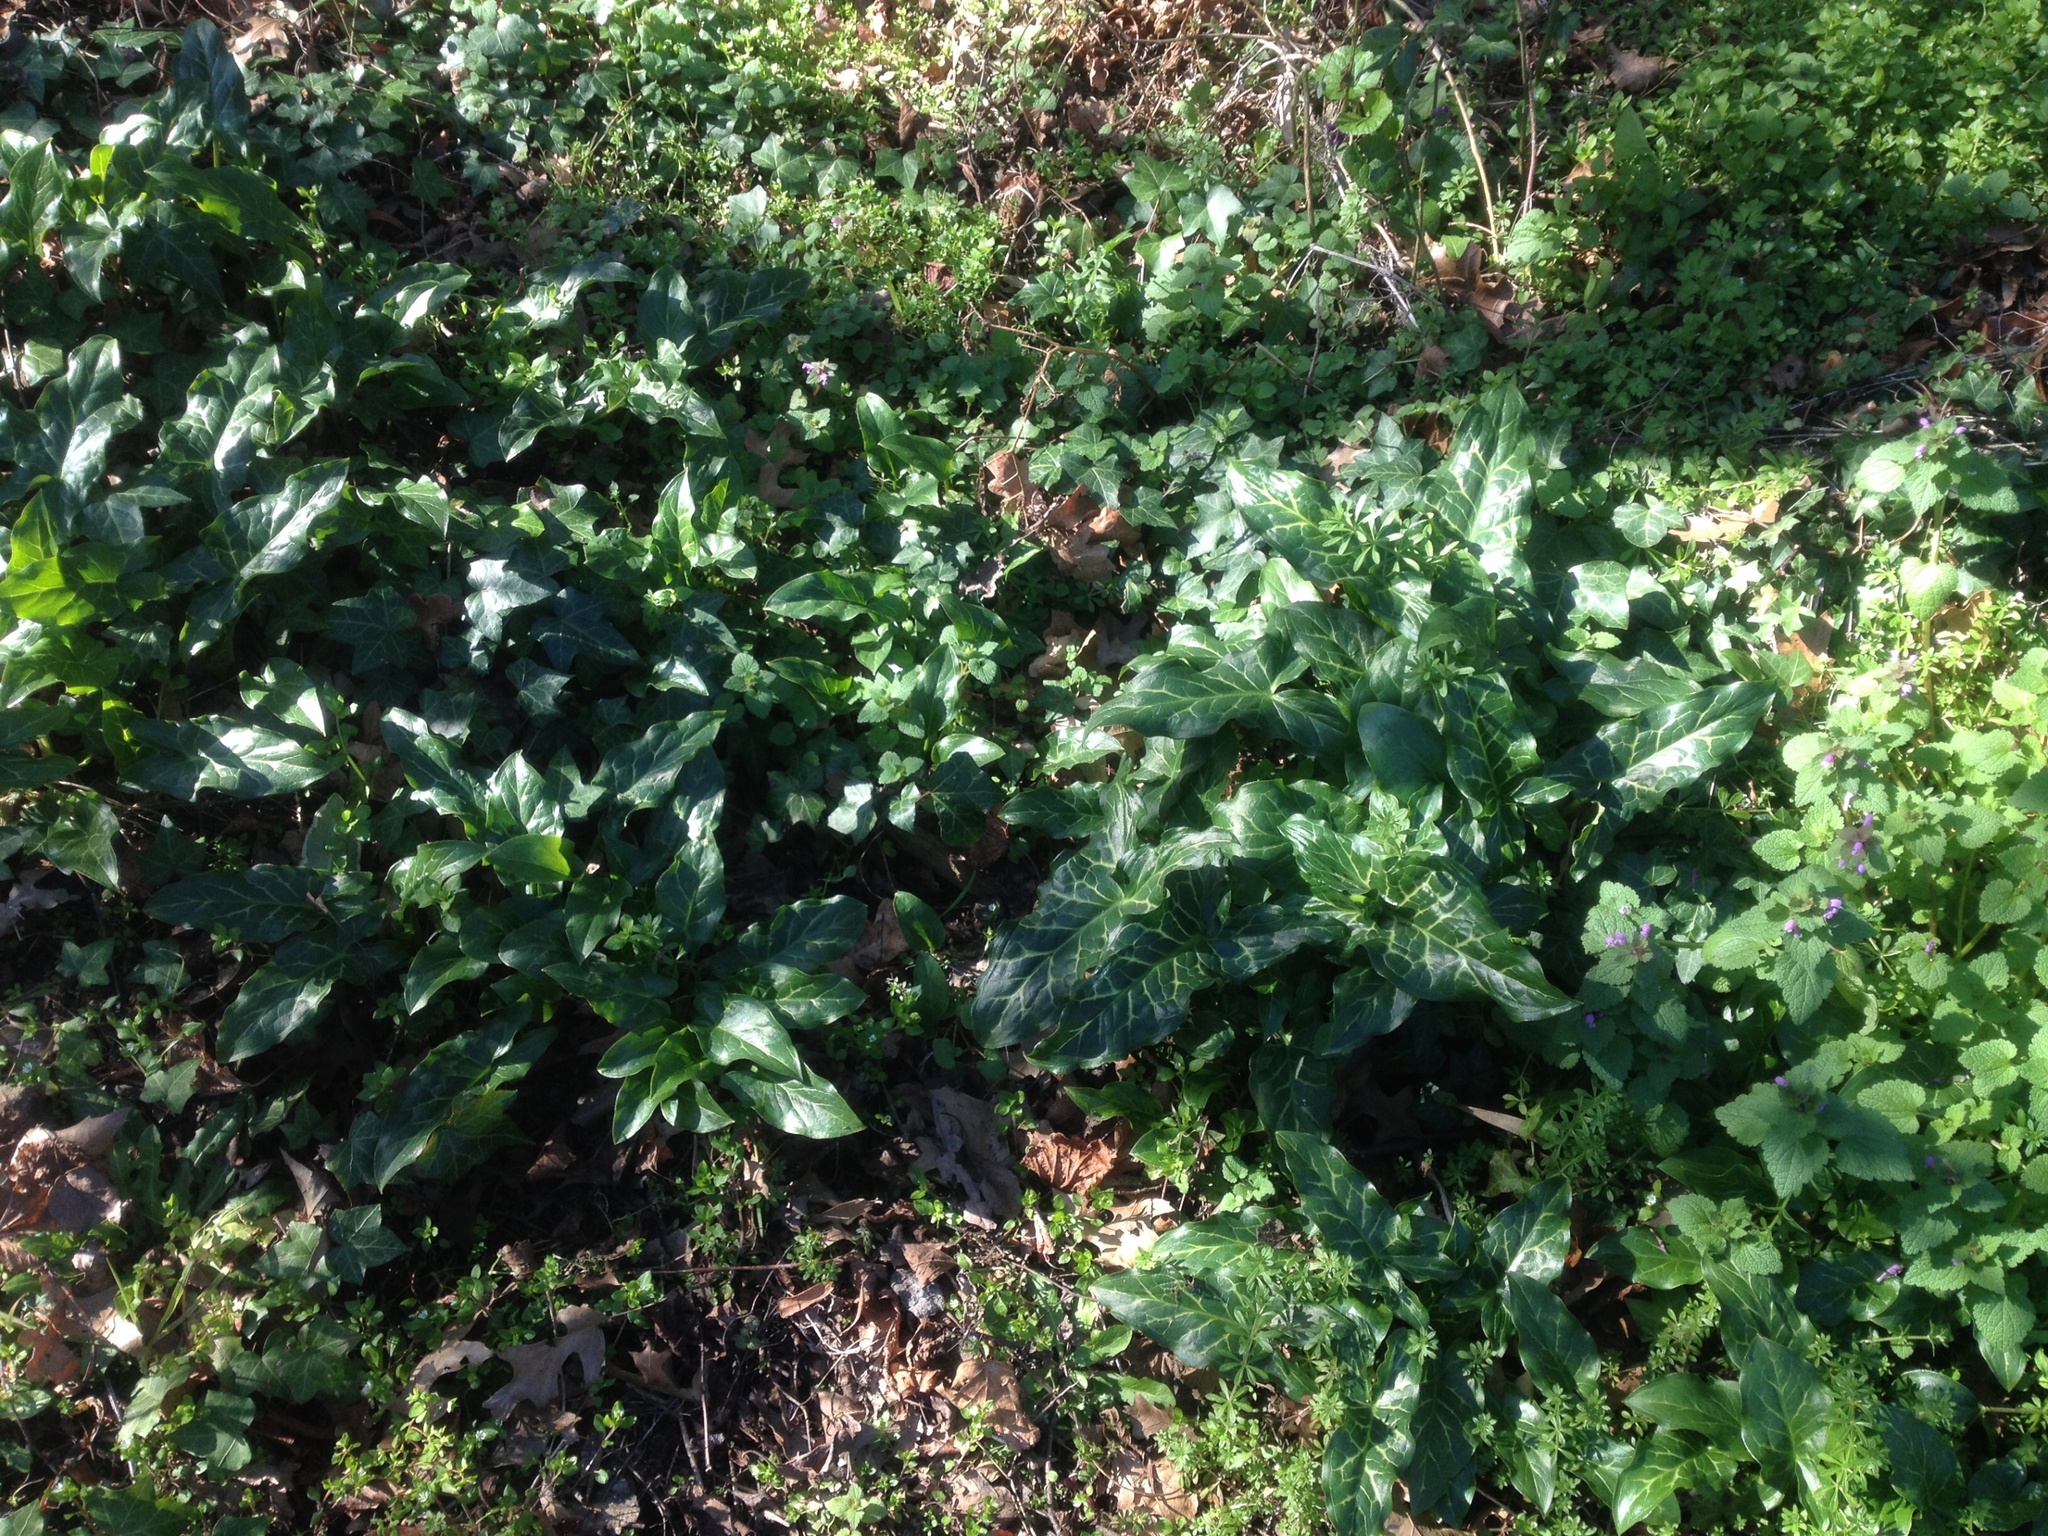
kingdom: Plantae
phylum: Tracheophyta
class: Liliopsida
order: Alismatales
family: Araceae
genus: Arum
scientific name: Arum italicum
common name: Italian lords-and-ladies
